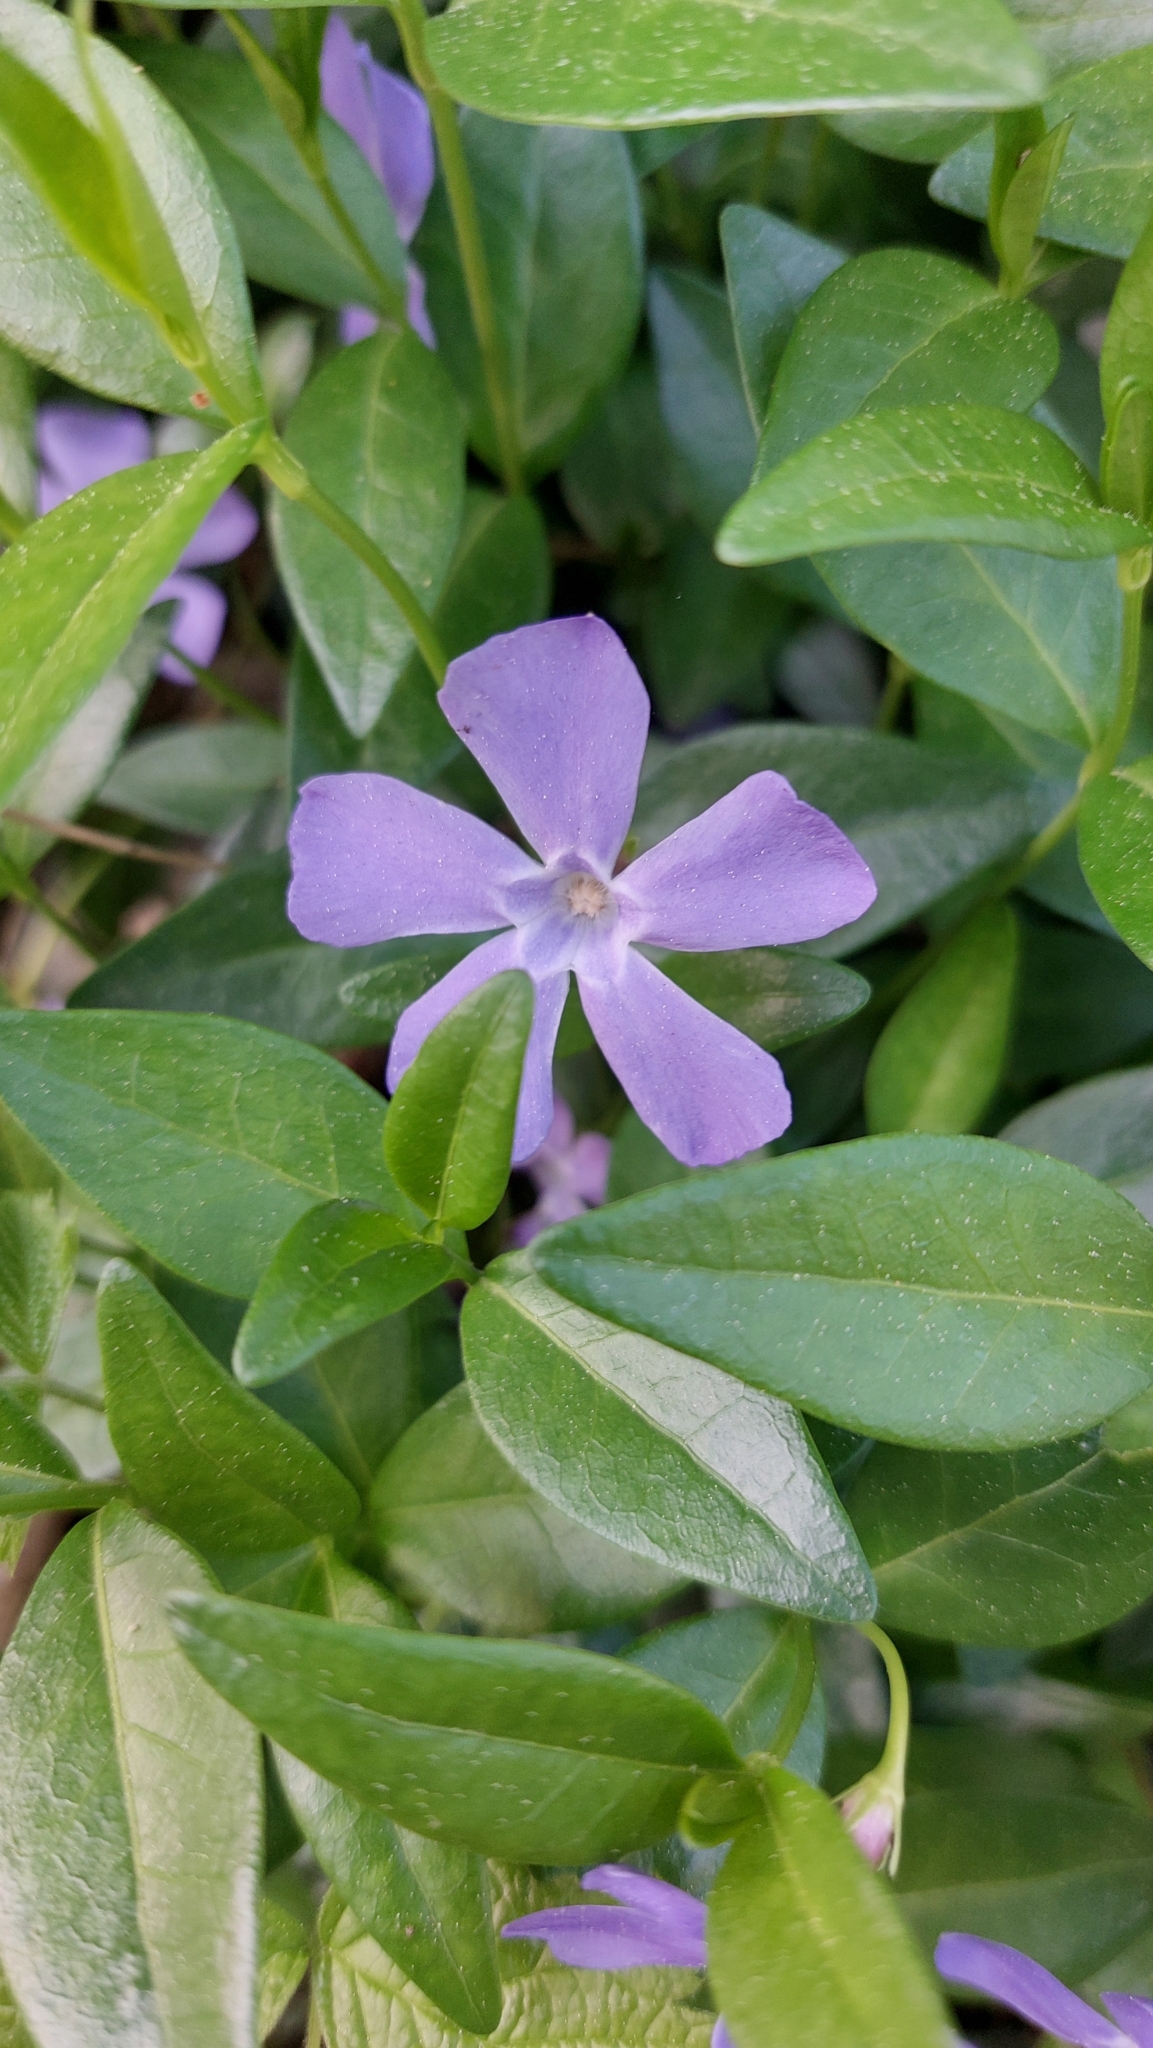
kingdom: Plantae
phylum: Tracheophyta
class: Magnoliopsida
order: Gentianales
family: Apocynaceae
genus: Vinca
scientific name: Vinca minor
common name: Lesser periwinkle
